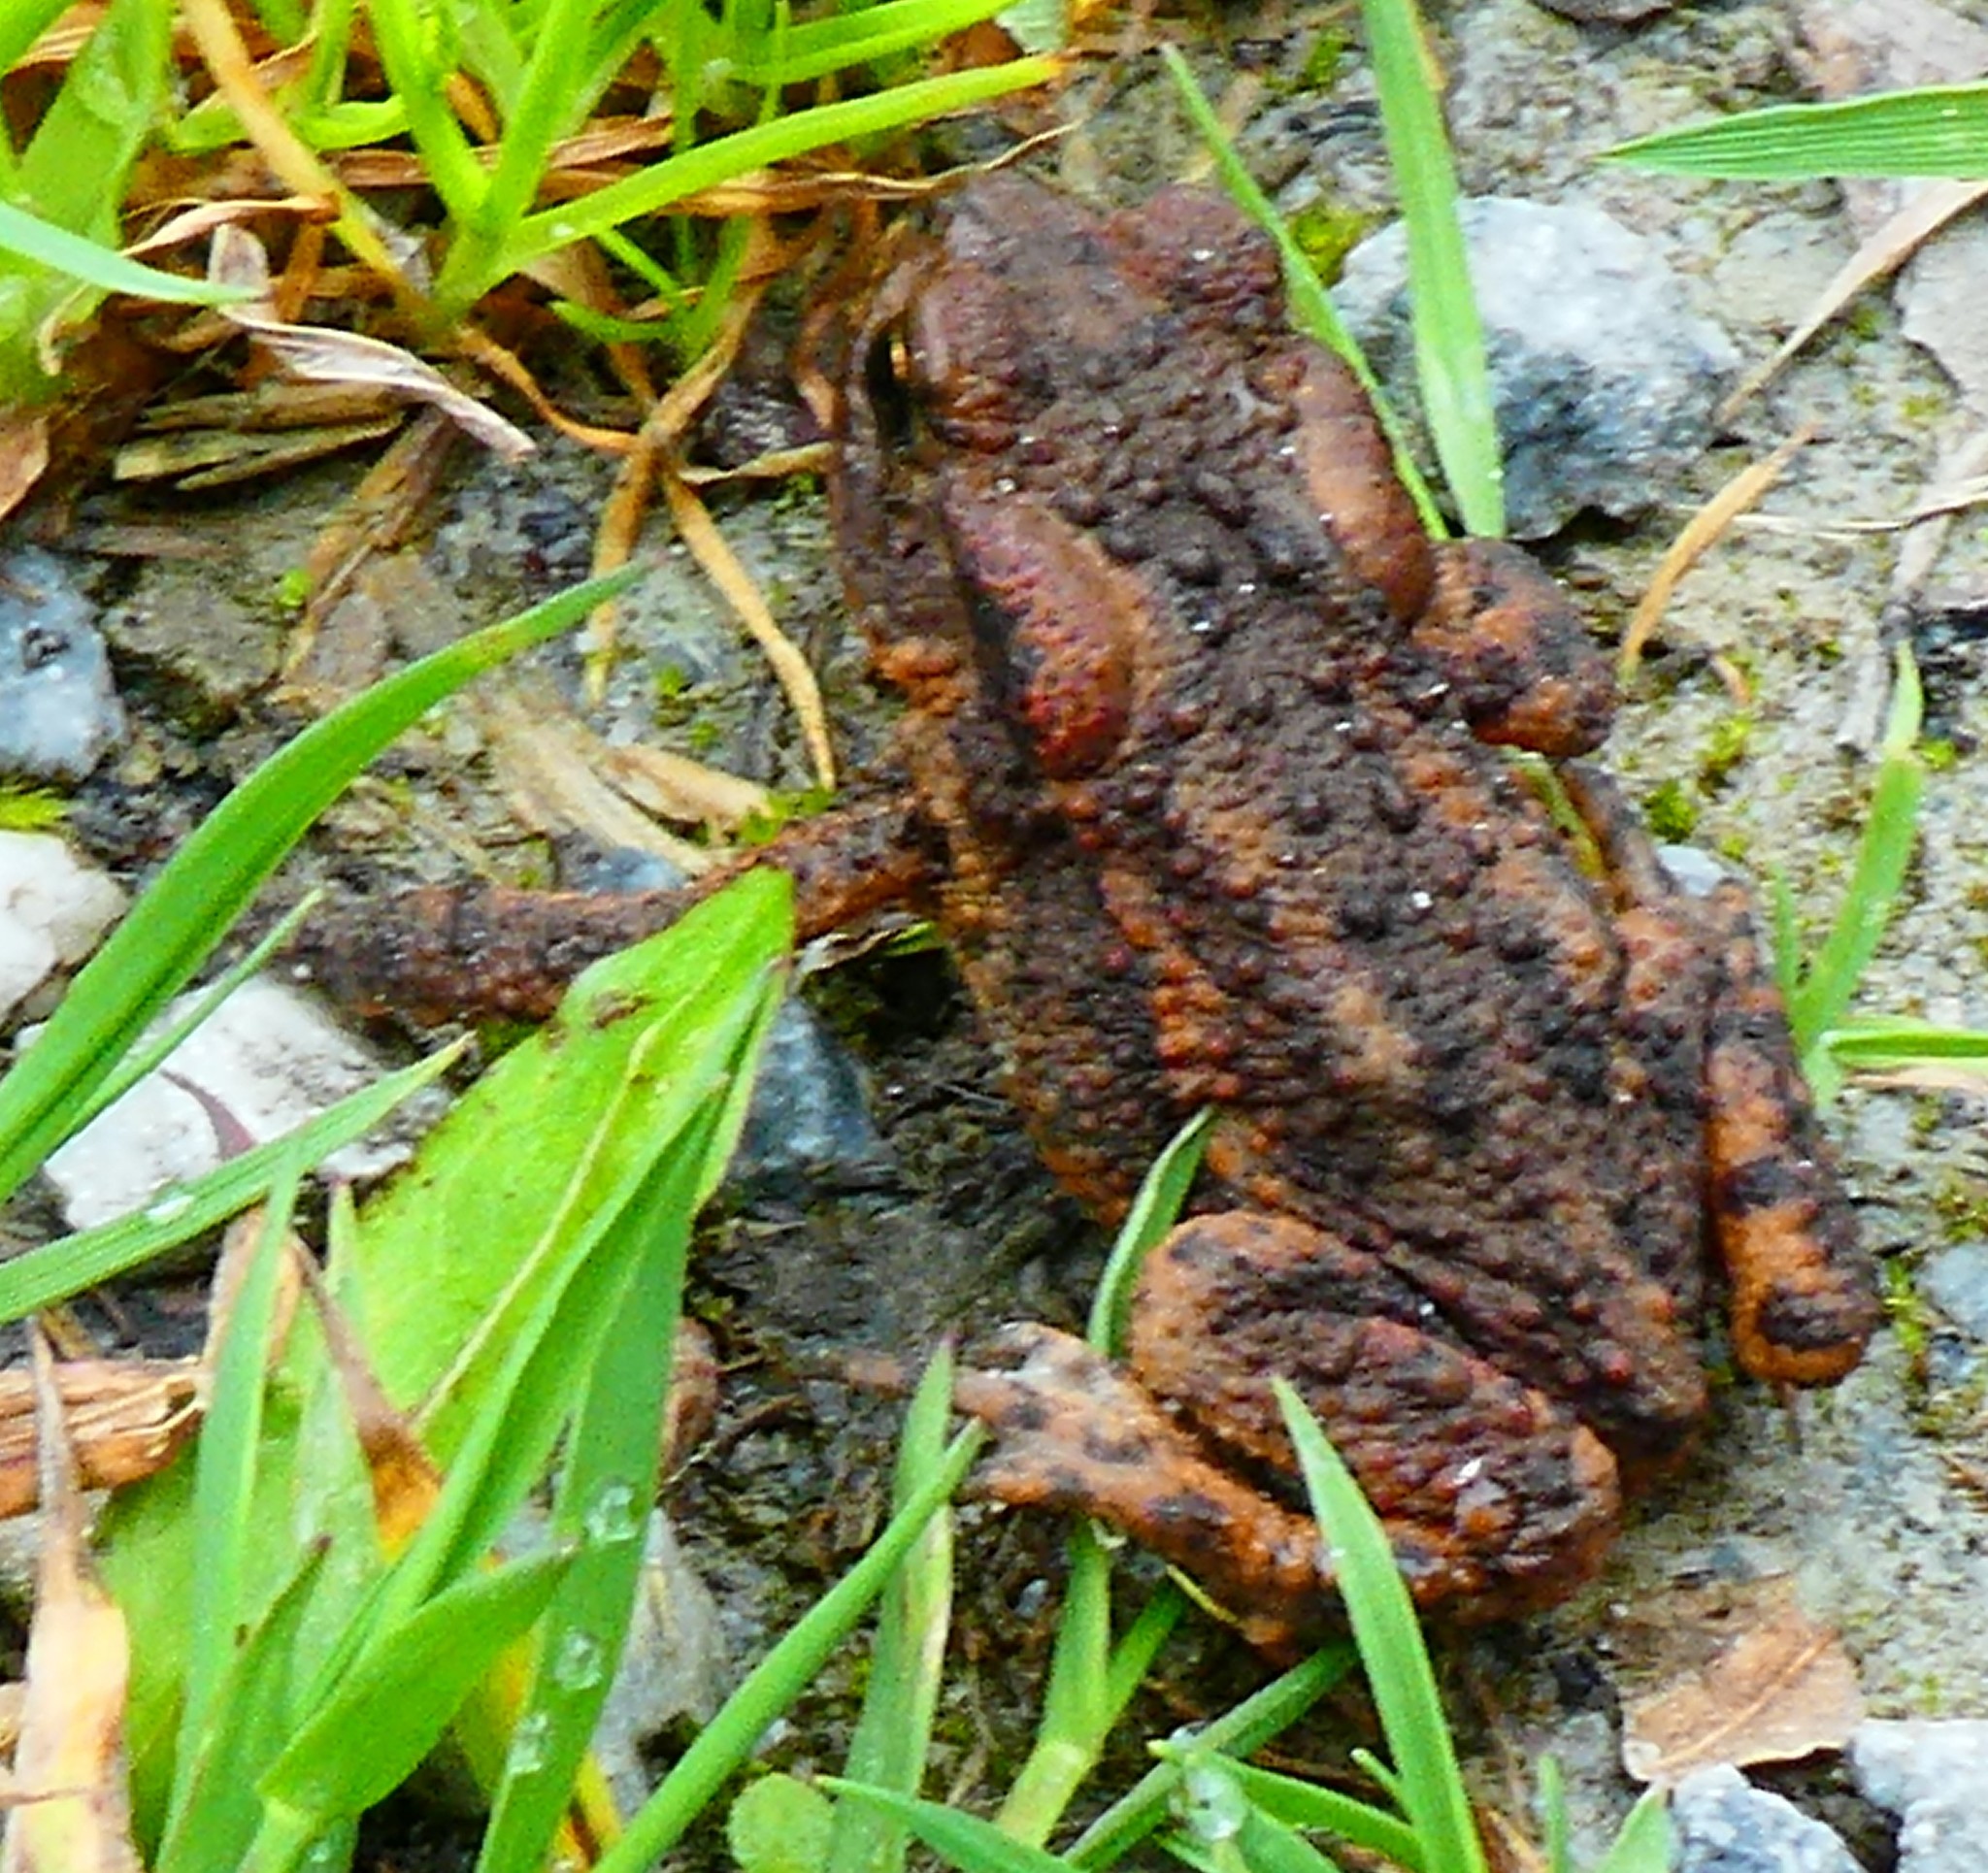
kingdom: Animalia
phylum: Chordata
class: Amphibia
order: Anura
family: Bufonidae
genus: Bufo
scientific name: Bufo bufo
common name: Common toad
